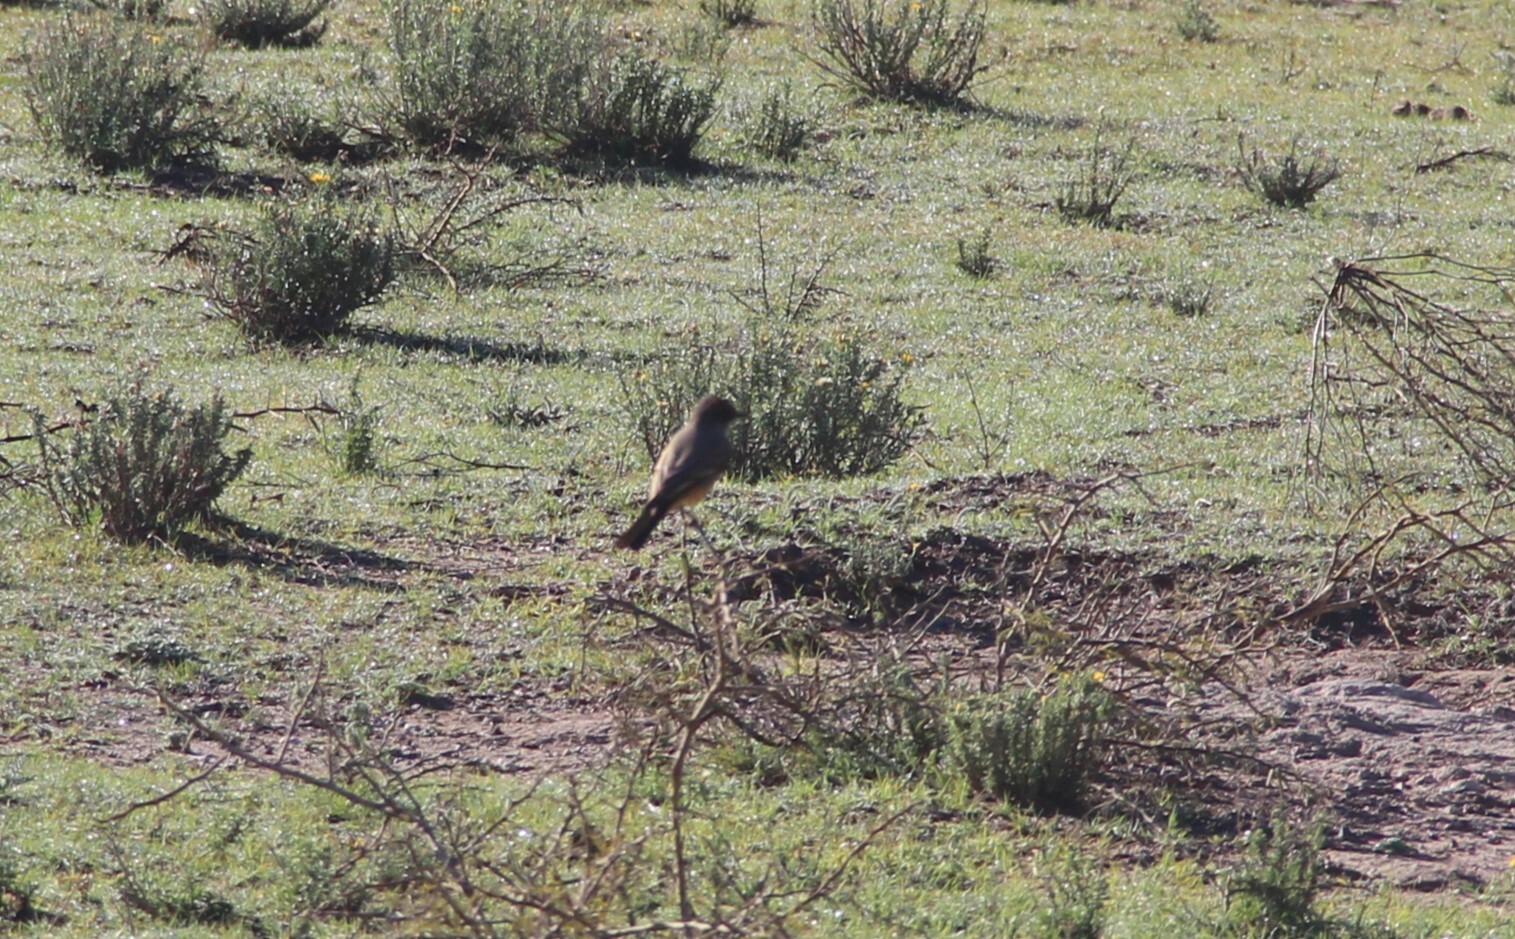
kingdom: Animalia
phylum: Chordata
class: Aves
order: Passeriformes
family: Tyrannidae
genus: Sayornis
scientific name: Sayornis saya
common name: Say's phoebe
